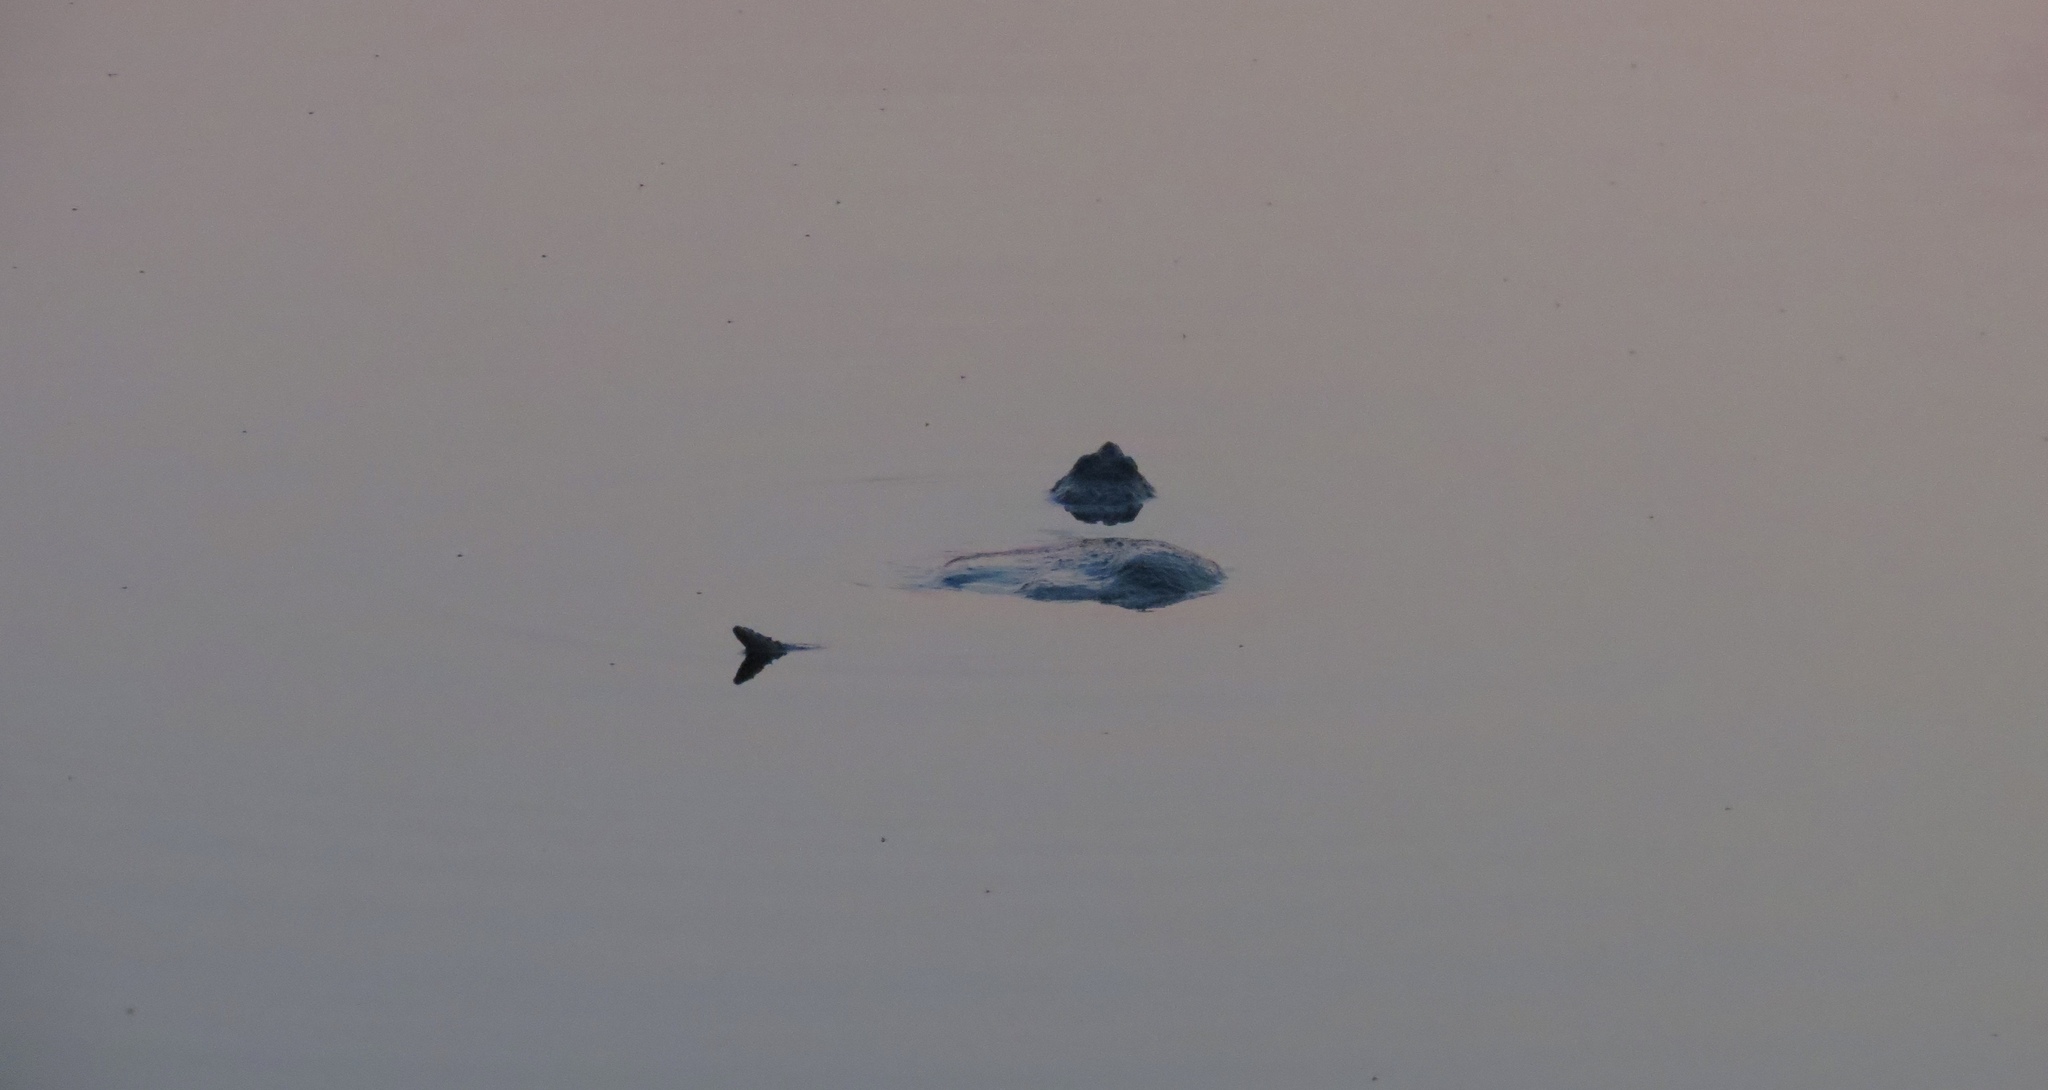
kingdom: Animalia
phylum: Chordata
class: Testudines
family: Chelydridae
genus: Chelydra
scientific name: Chelydra serpentina
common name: Common snapping turtle
